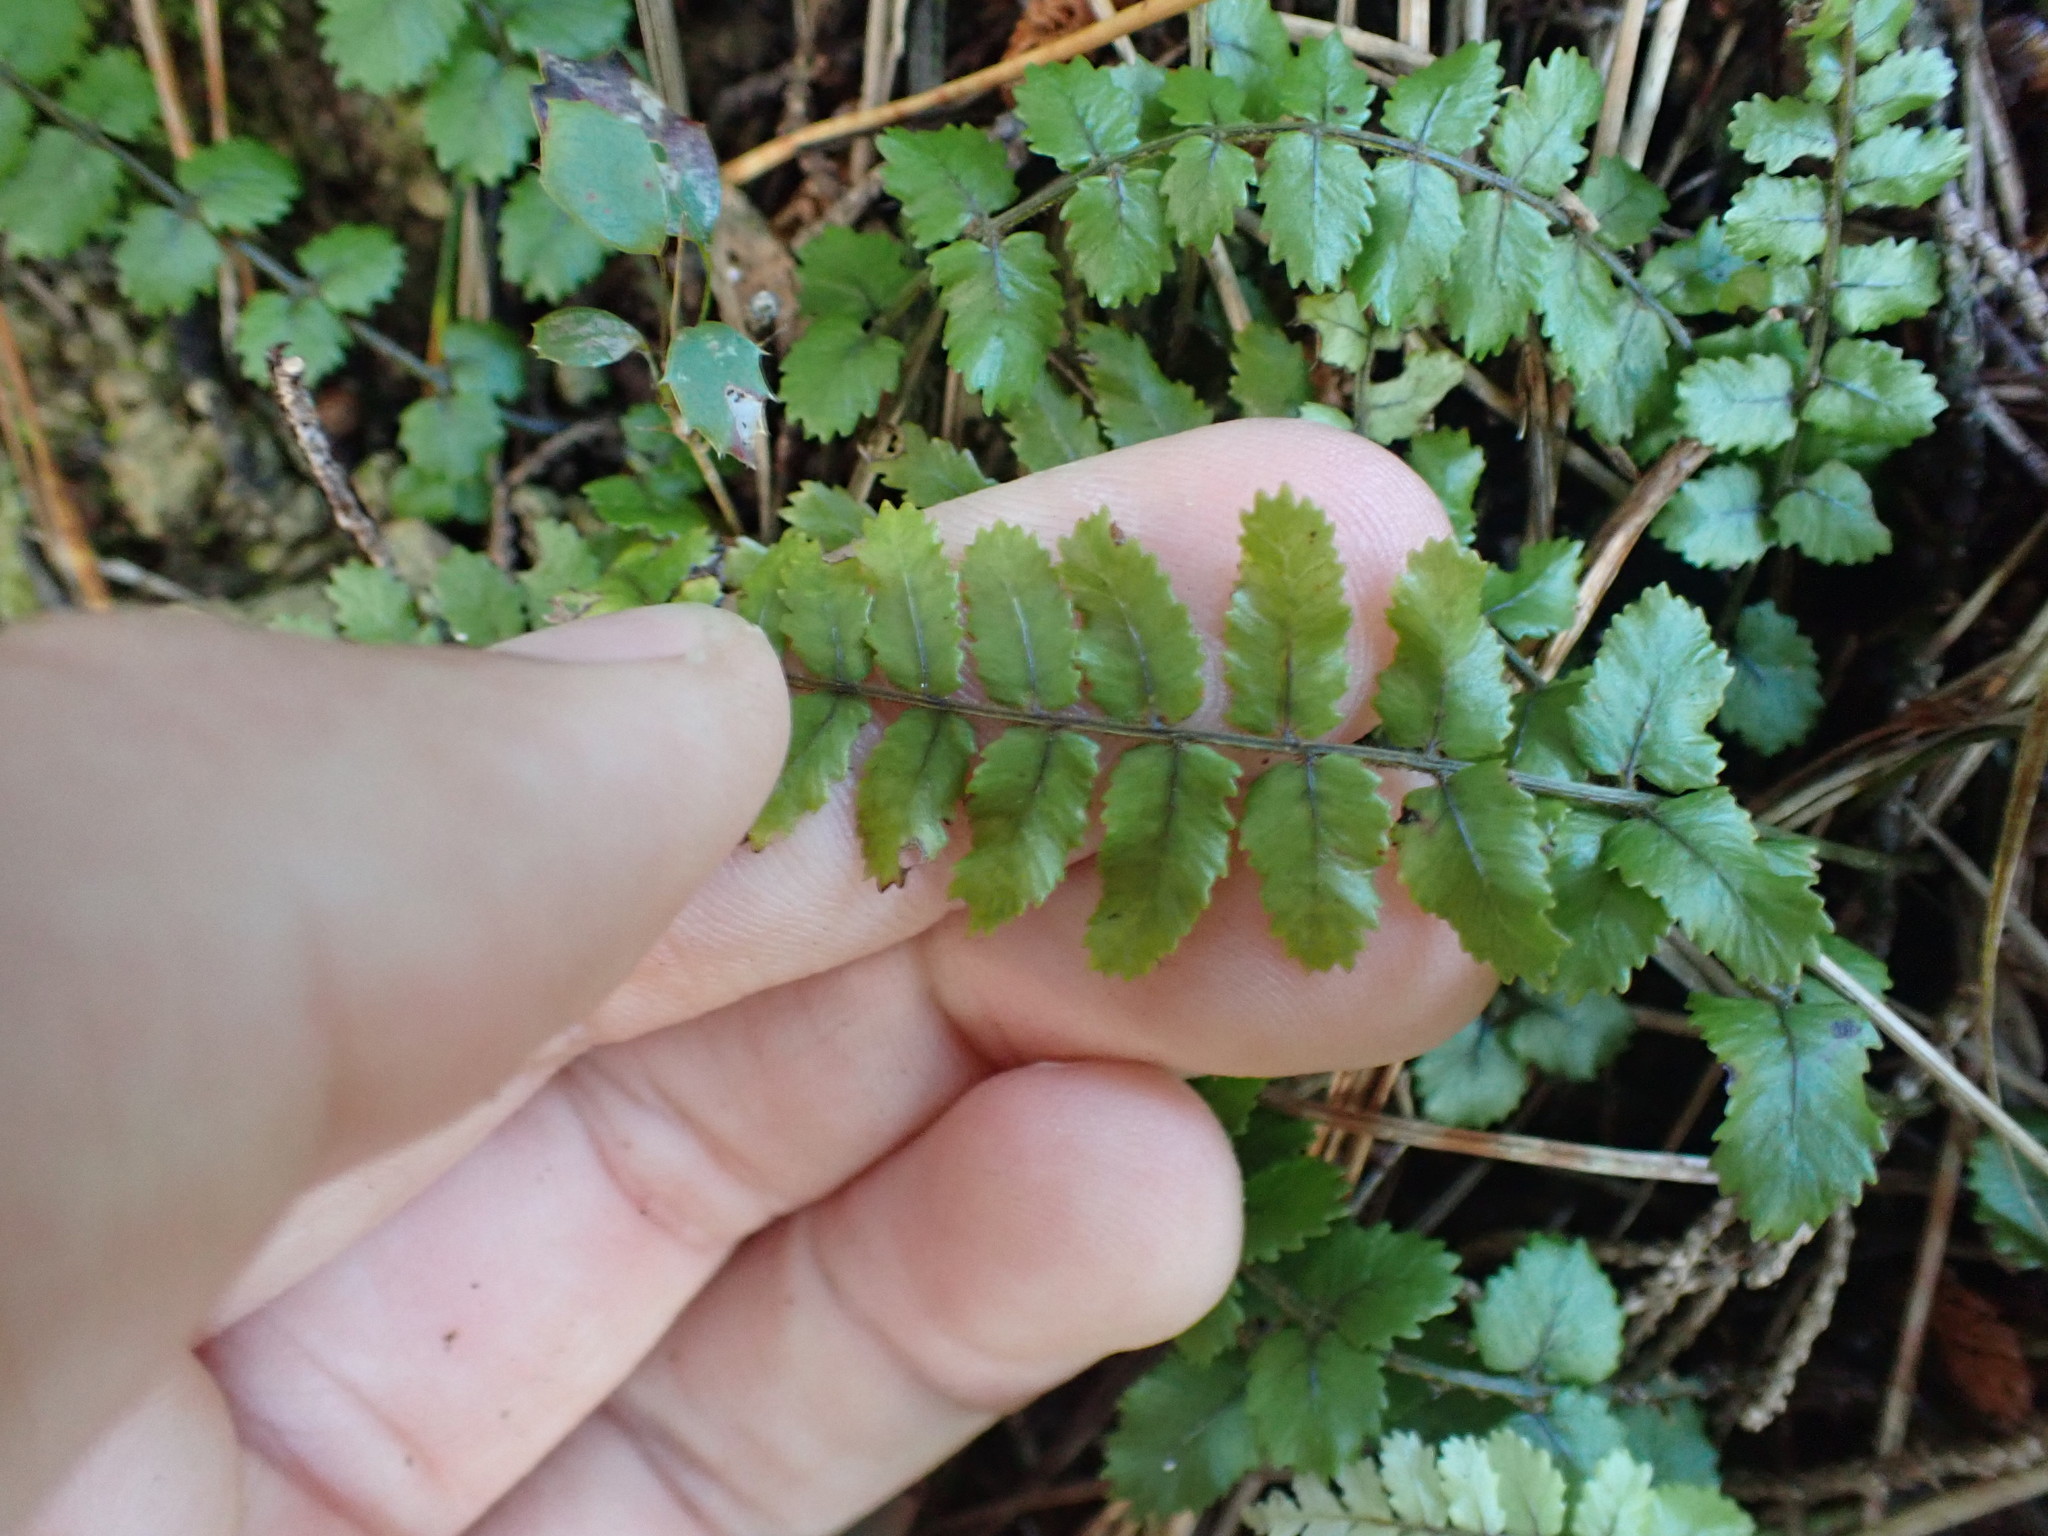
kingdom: Plantae
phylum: Tracheophyta
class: Polypodiopsida
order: Polypodiales
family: Blechnaceae
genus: Icarus
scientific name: Icarus filiformis
